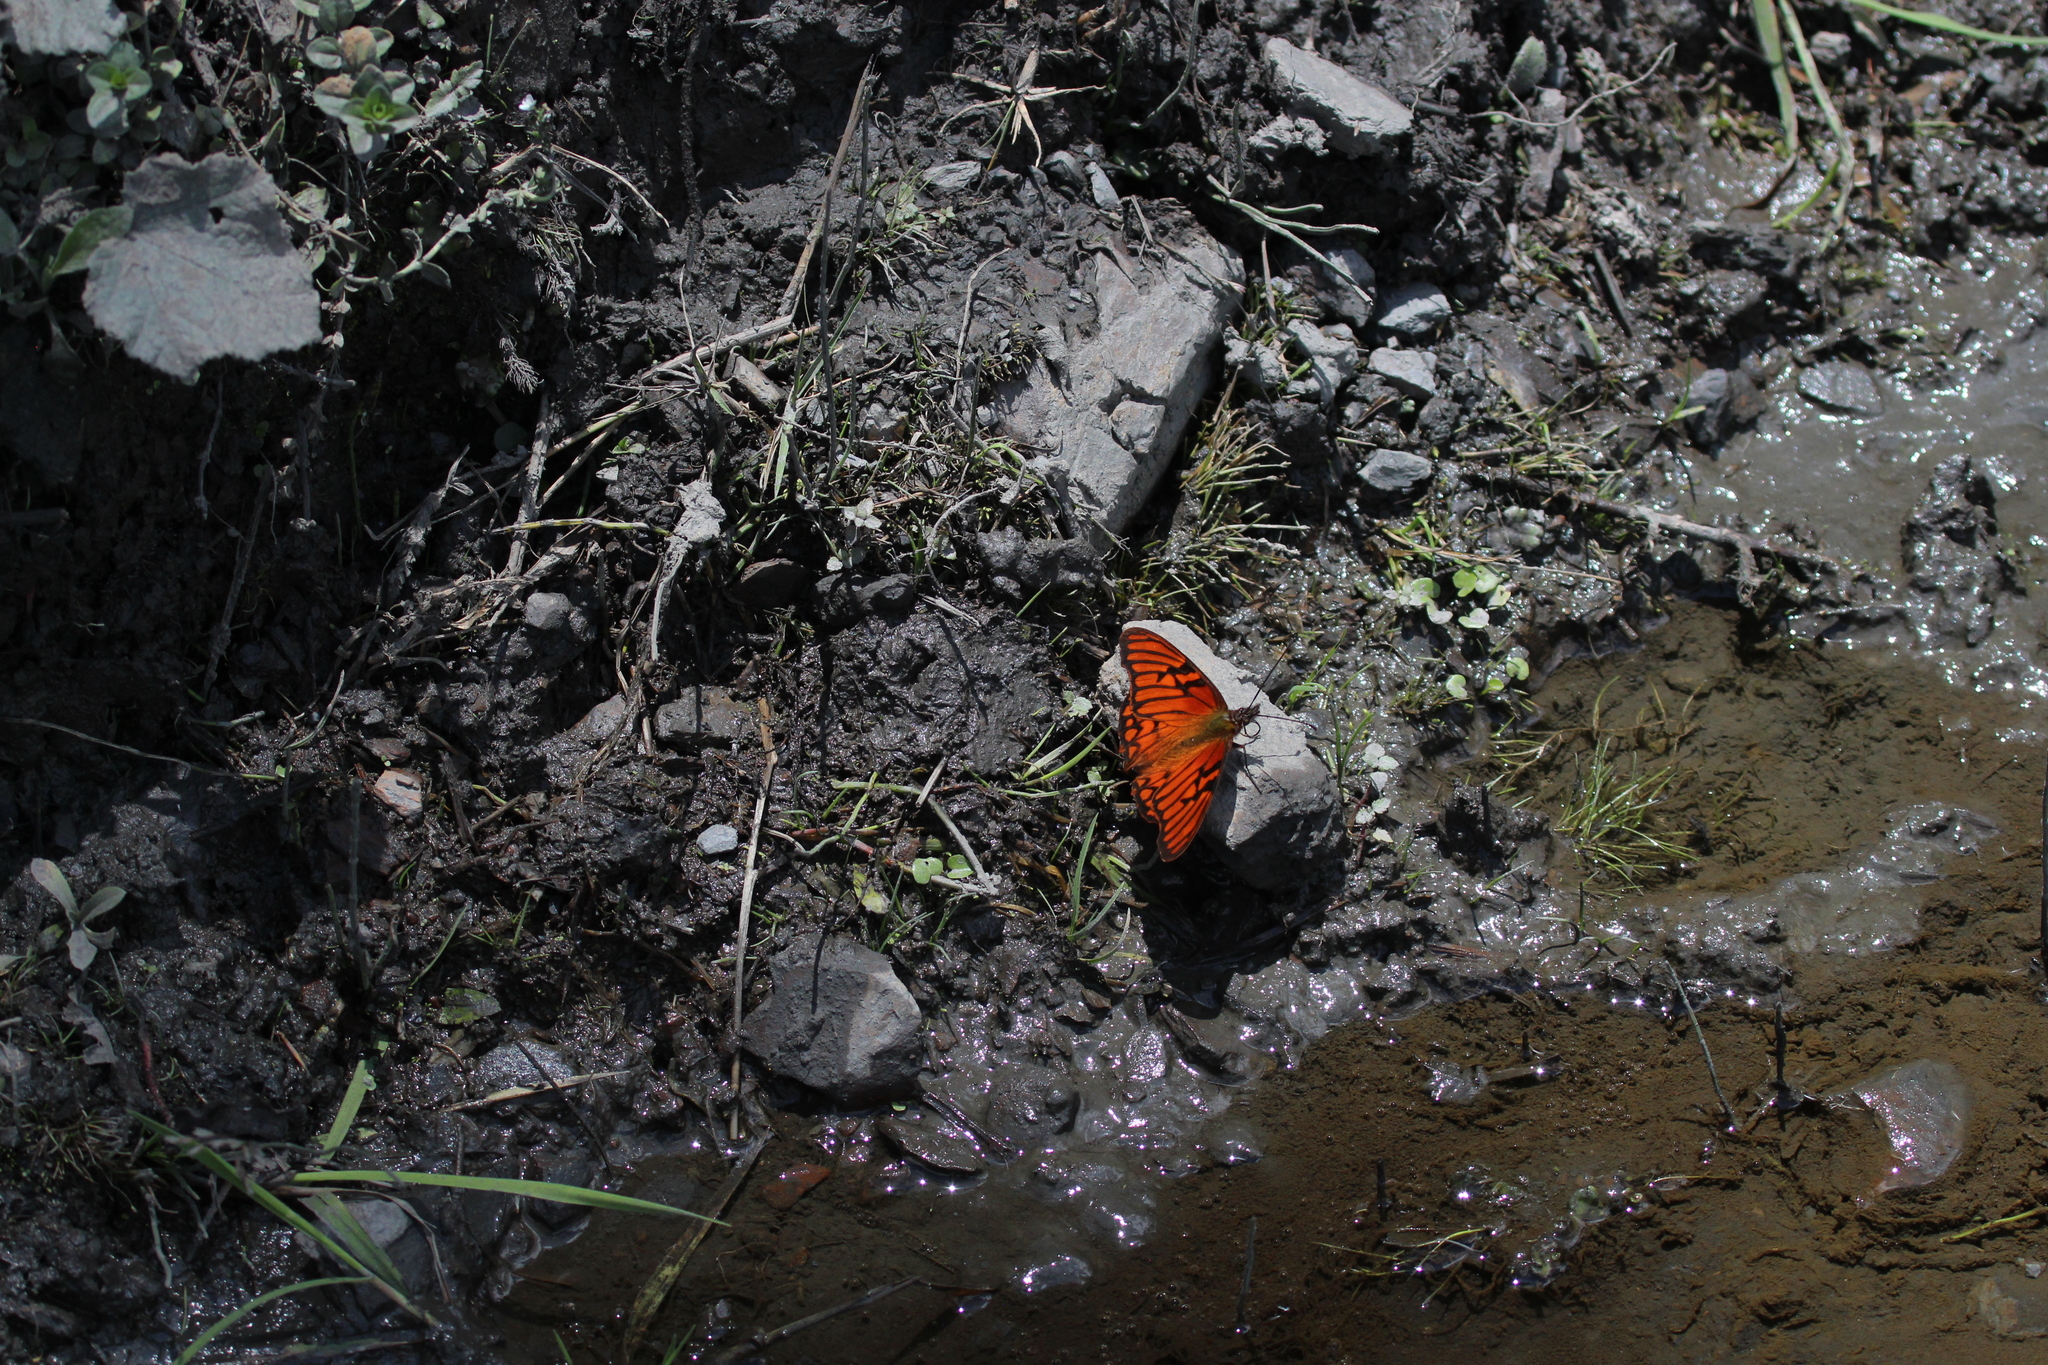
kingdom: Animalia
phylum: Arthropoda
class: Insecta
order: Lepidoptera
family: Nymphalidae
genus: Dione
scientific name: Dione glycera
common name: Andean silverspot
